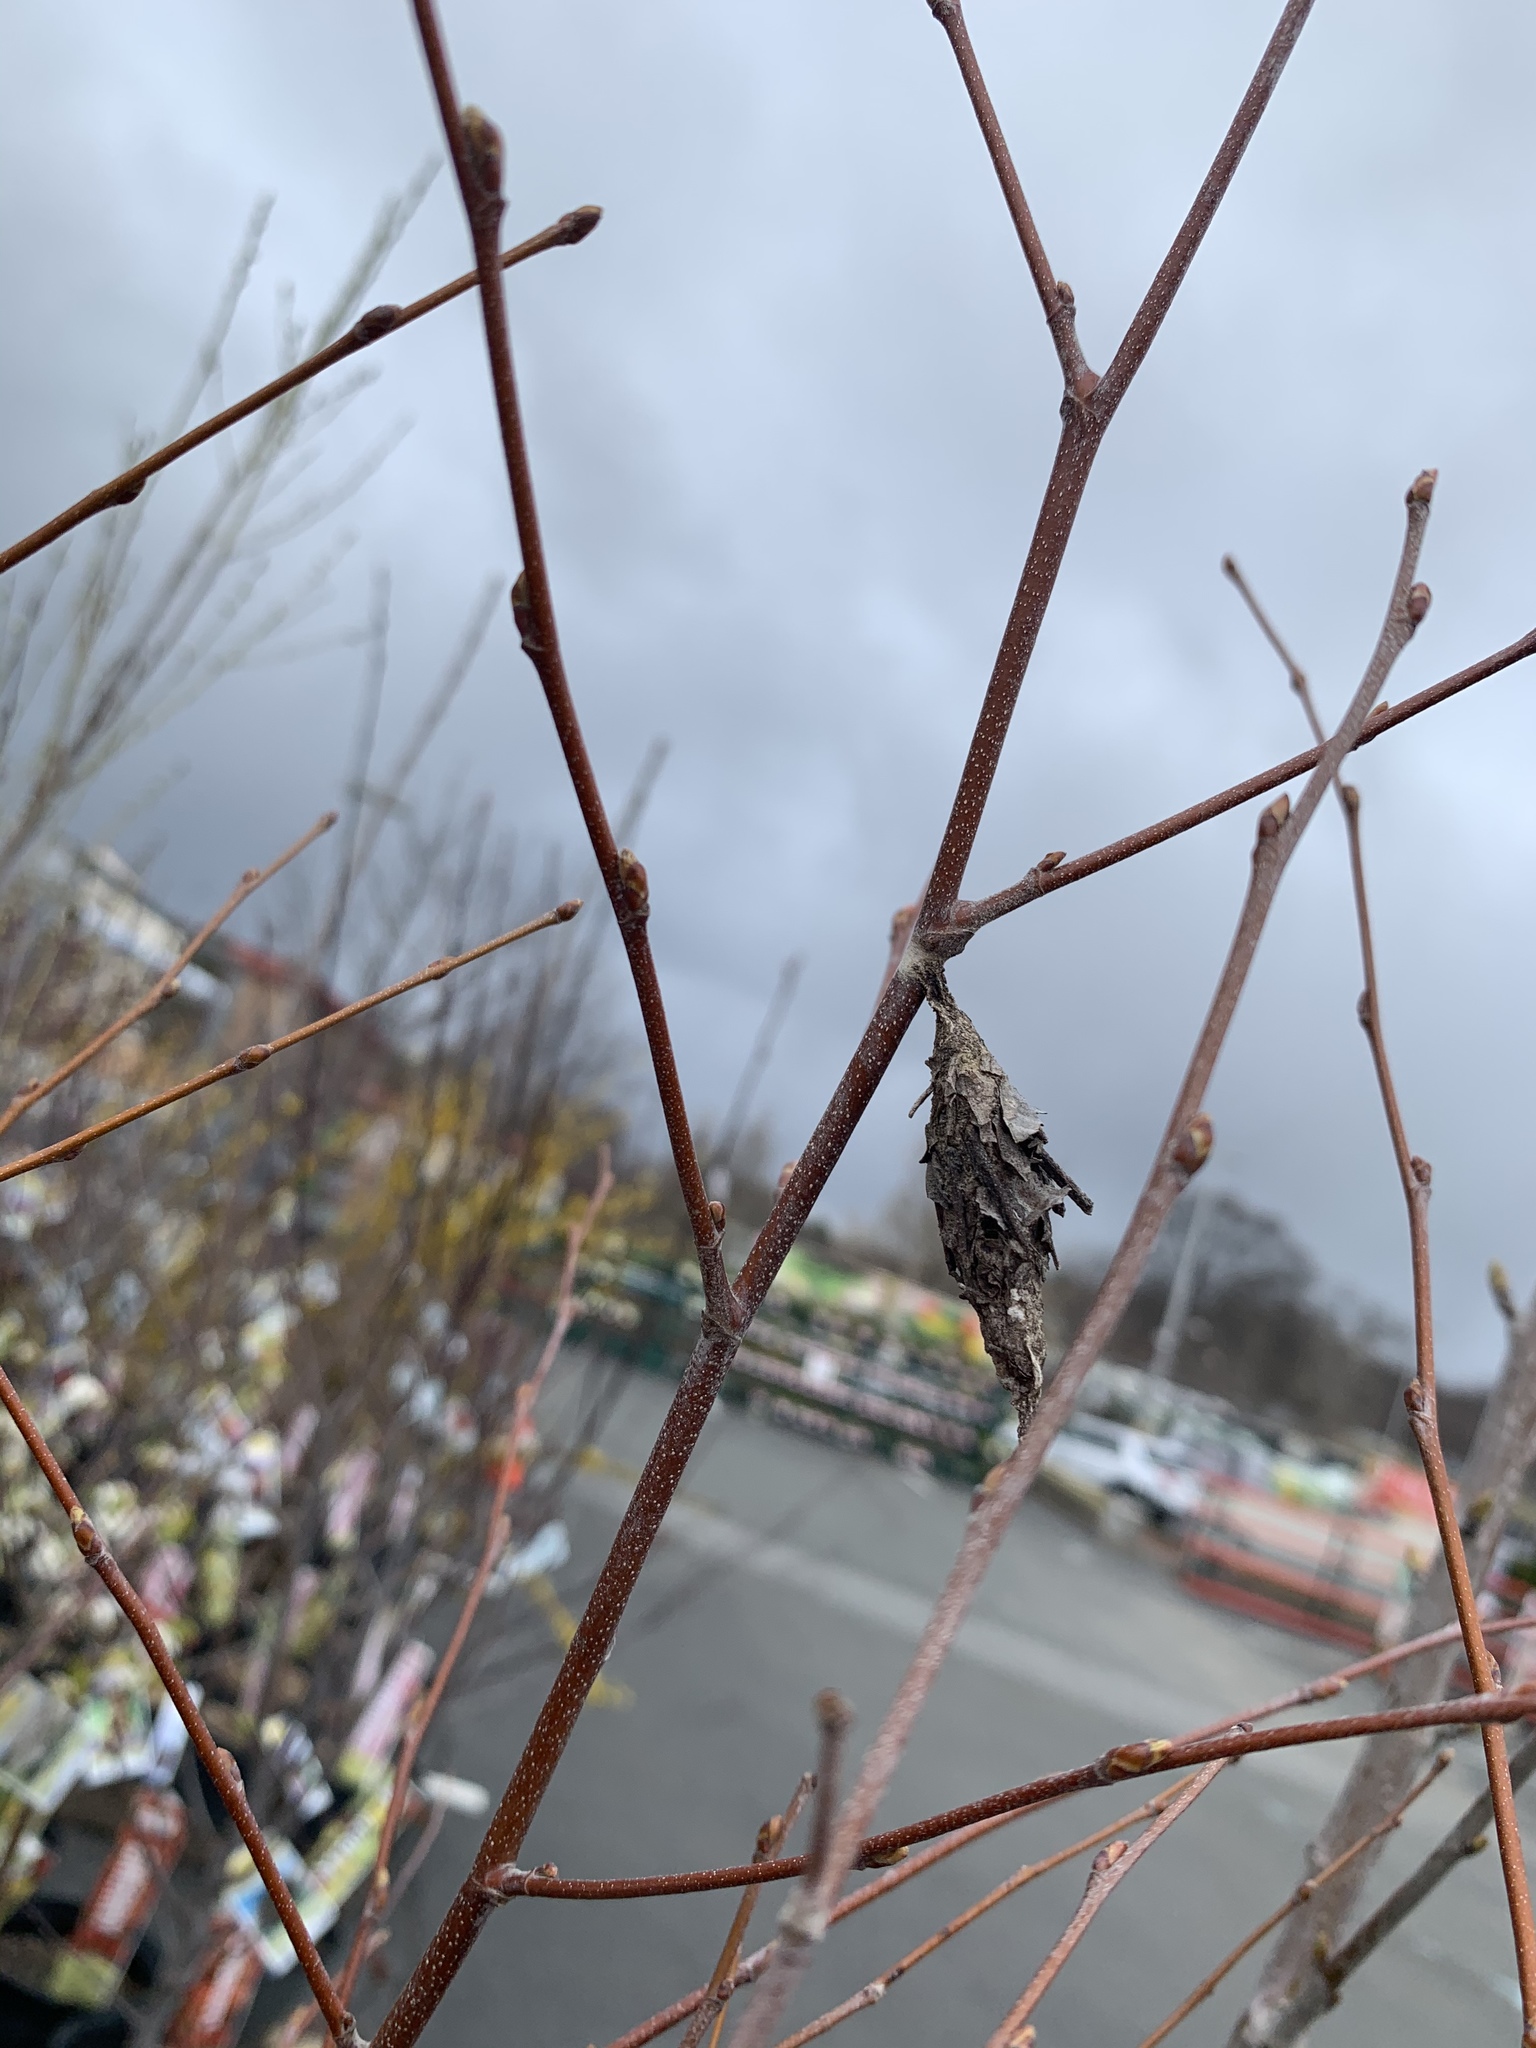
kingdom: Animalia
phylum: Arthropoda
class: Insecta
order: Lepidoptera
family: Psychidae
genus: Thyridopteryx
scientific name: Thyridopteryx ephemeraeformis
